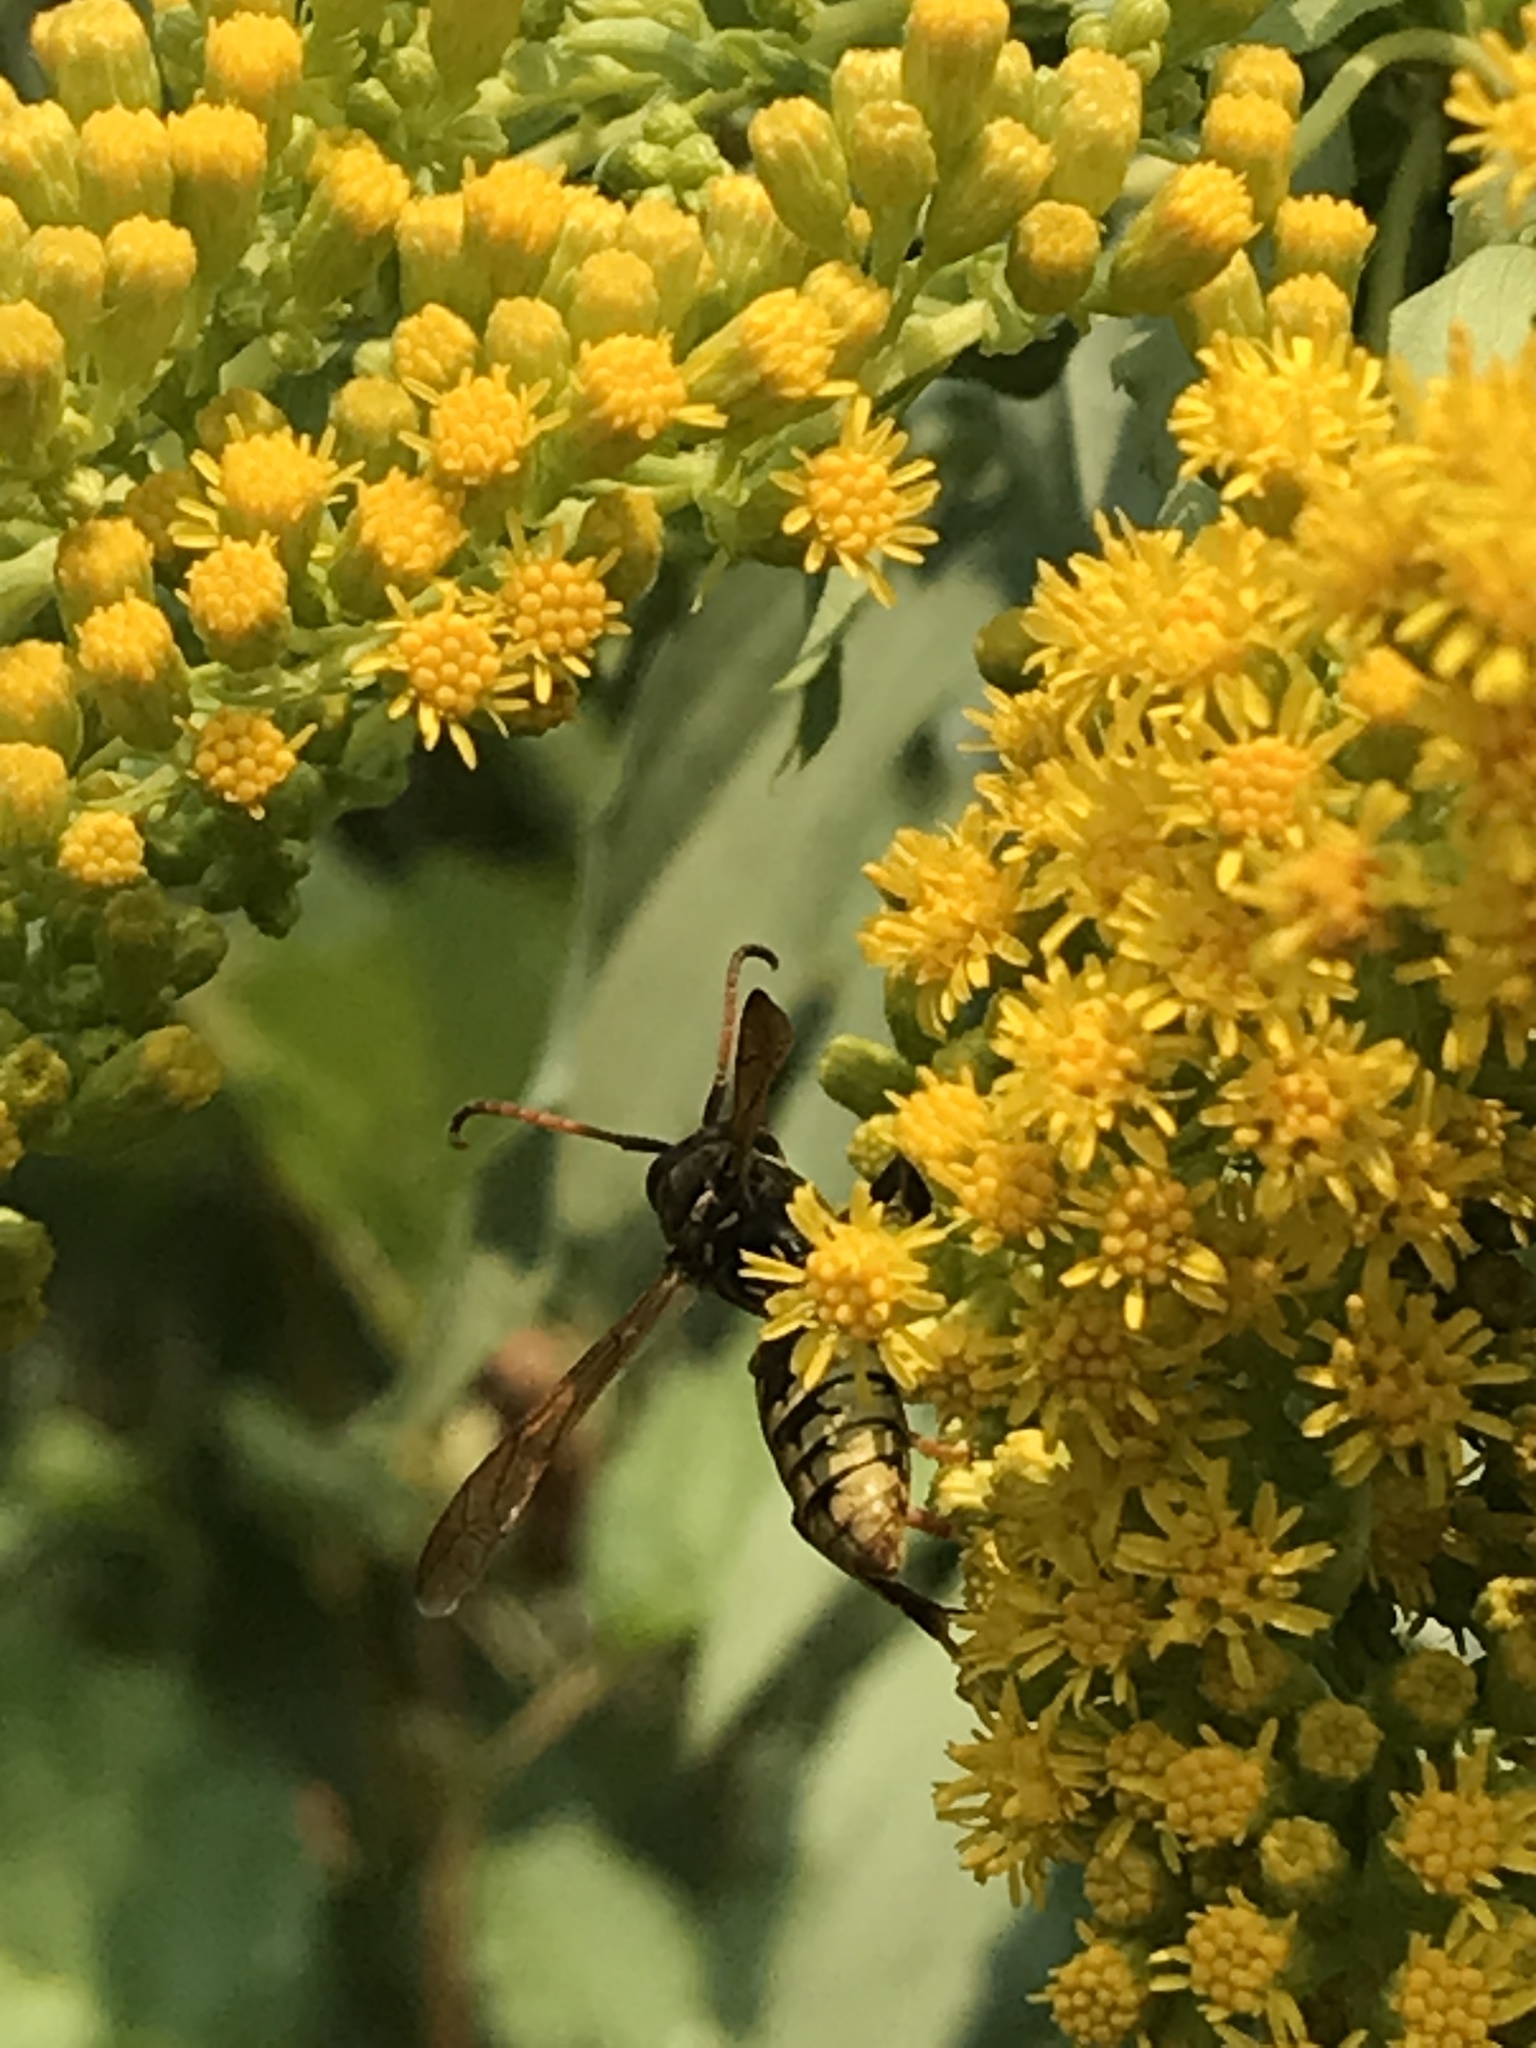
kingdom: Animalia
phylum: Arthropoda
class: Insecta
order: Hymenoptera
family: Eumenidae
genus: Polistes
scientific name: Polistes aurifer
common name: Paper wasp
